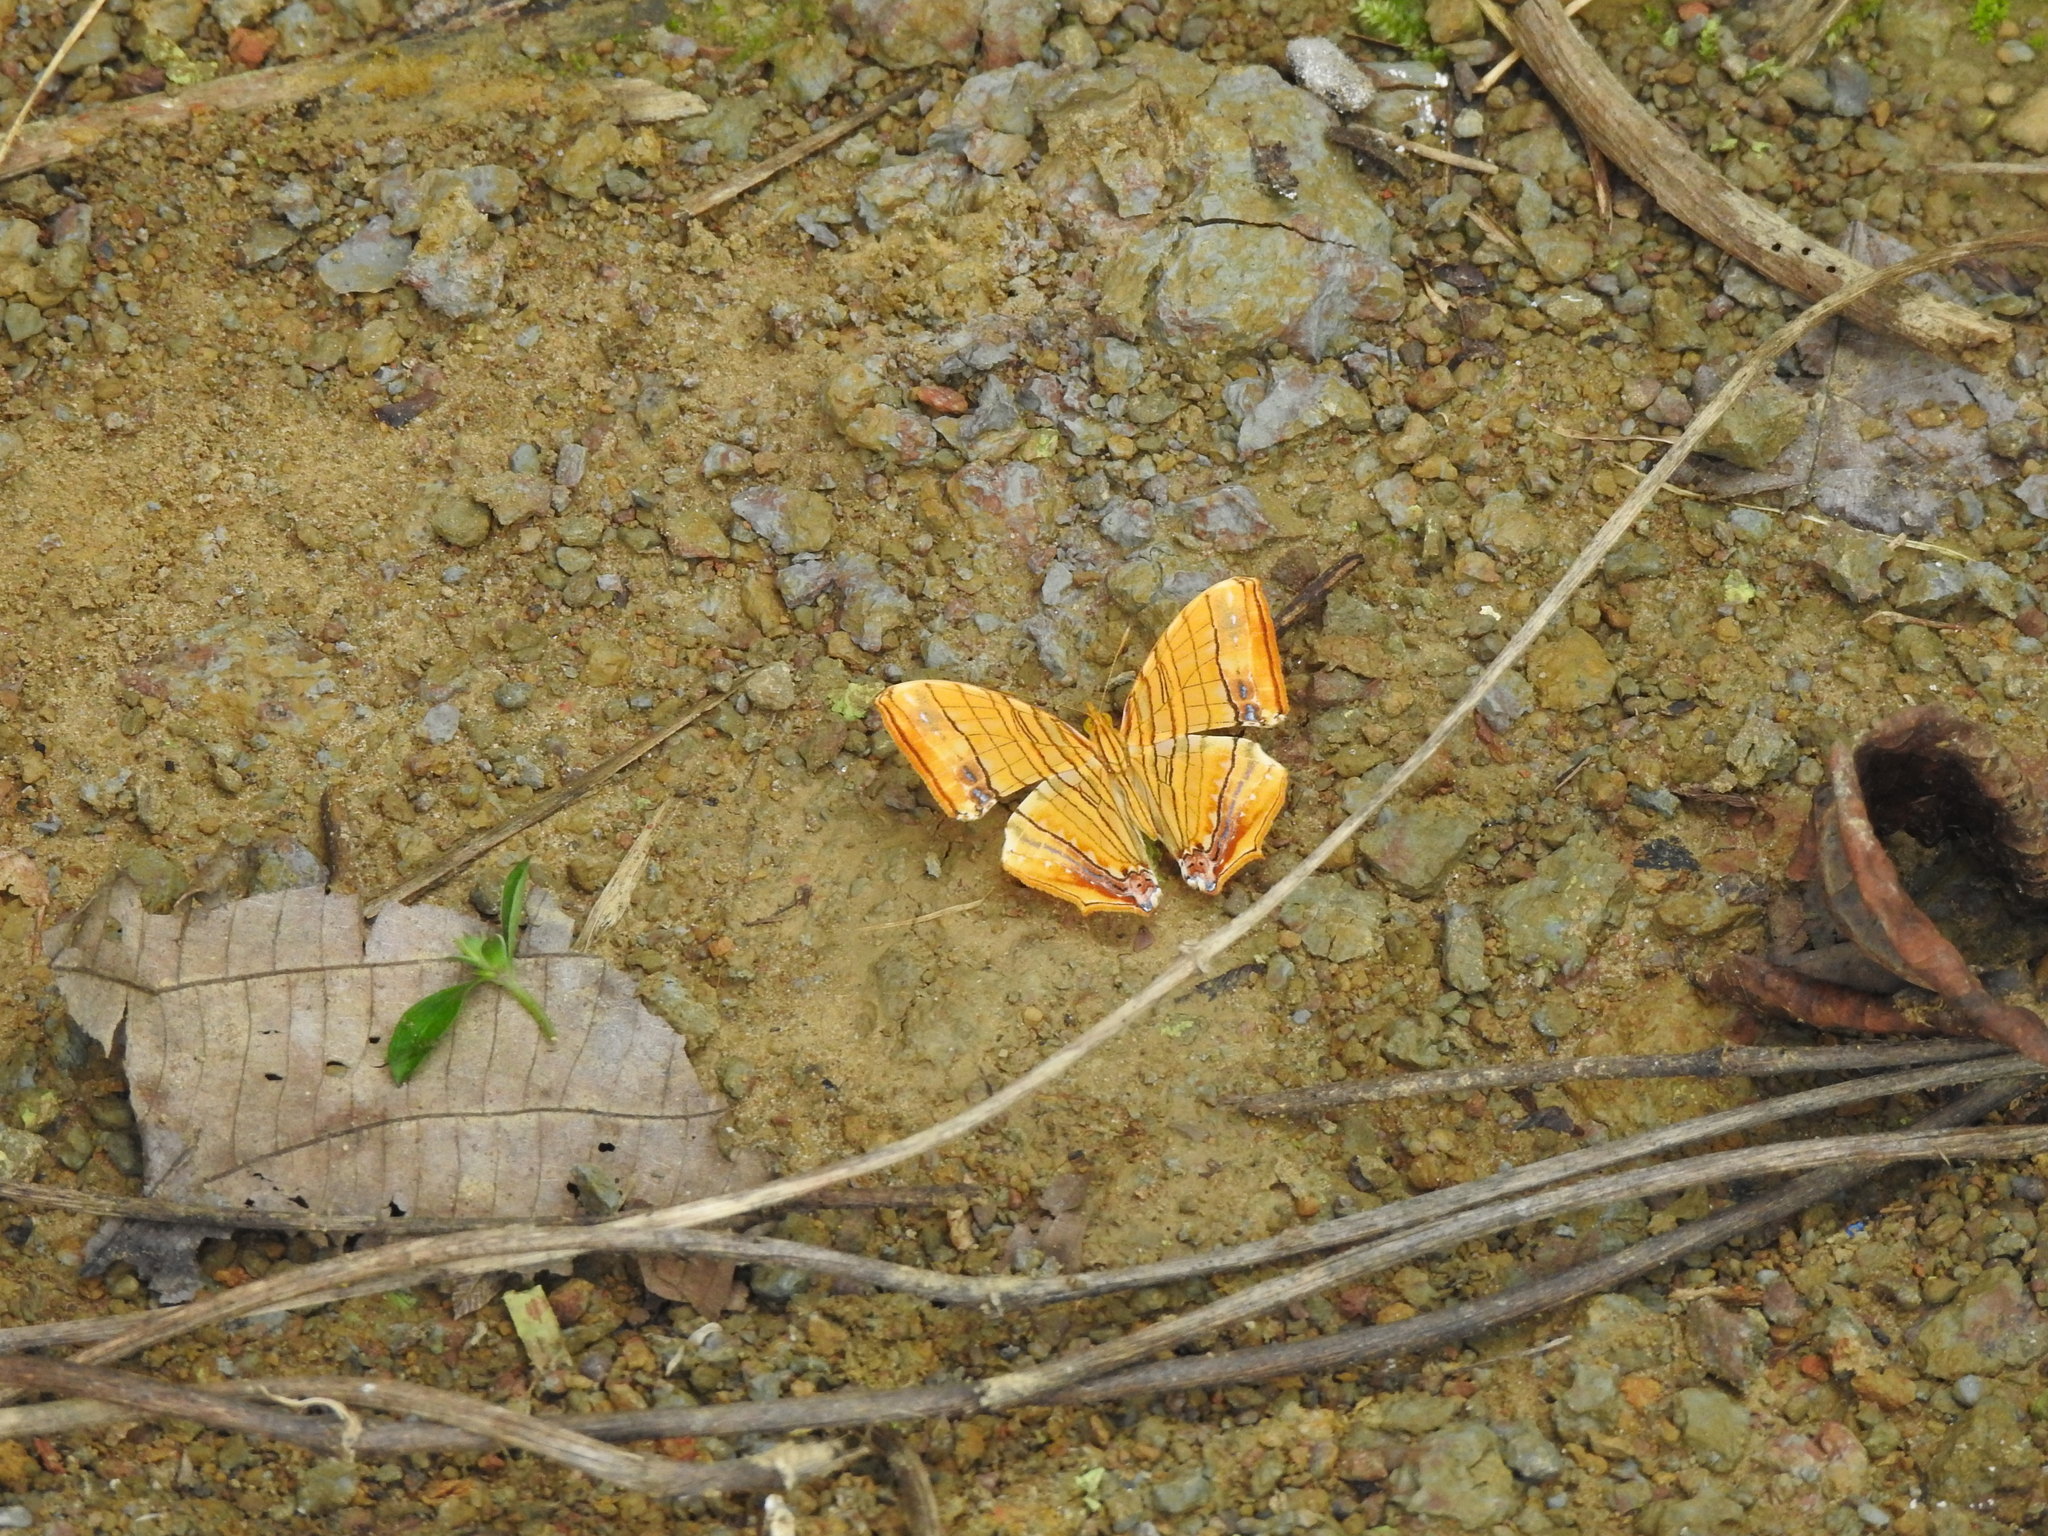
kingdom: Animalia
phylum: Arthropoda
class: Insecta
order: Lepidoptera
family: Nymphalidae
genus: Chersonesia
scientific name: Chersonesia risa
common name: Common maplet
